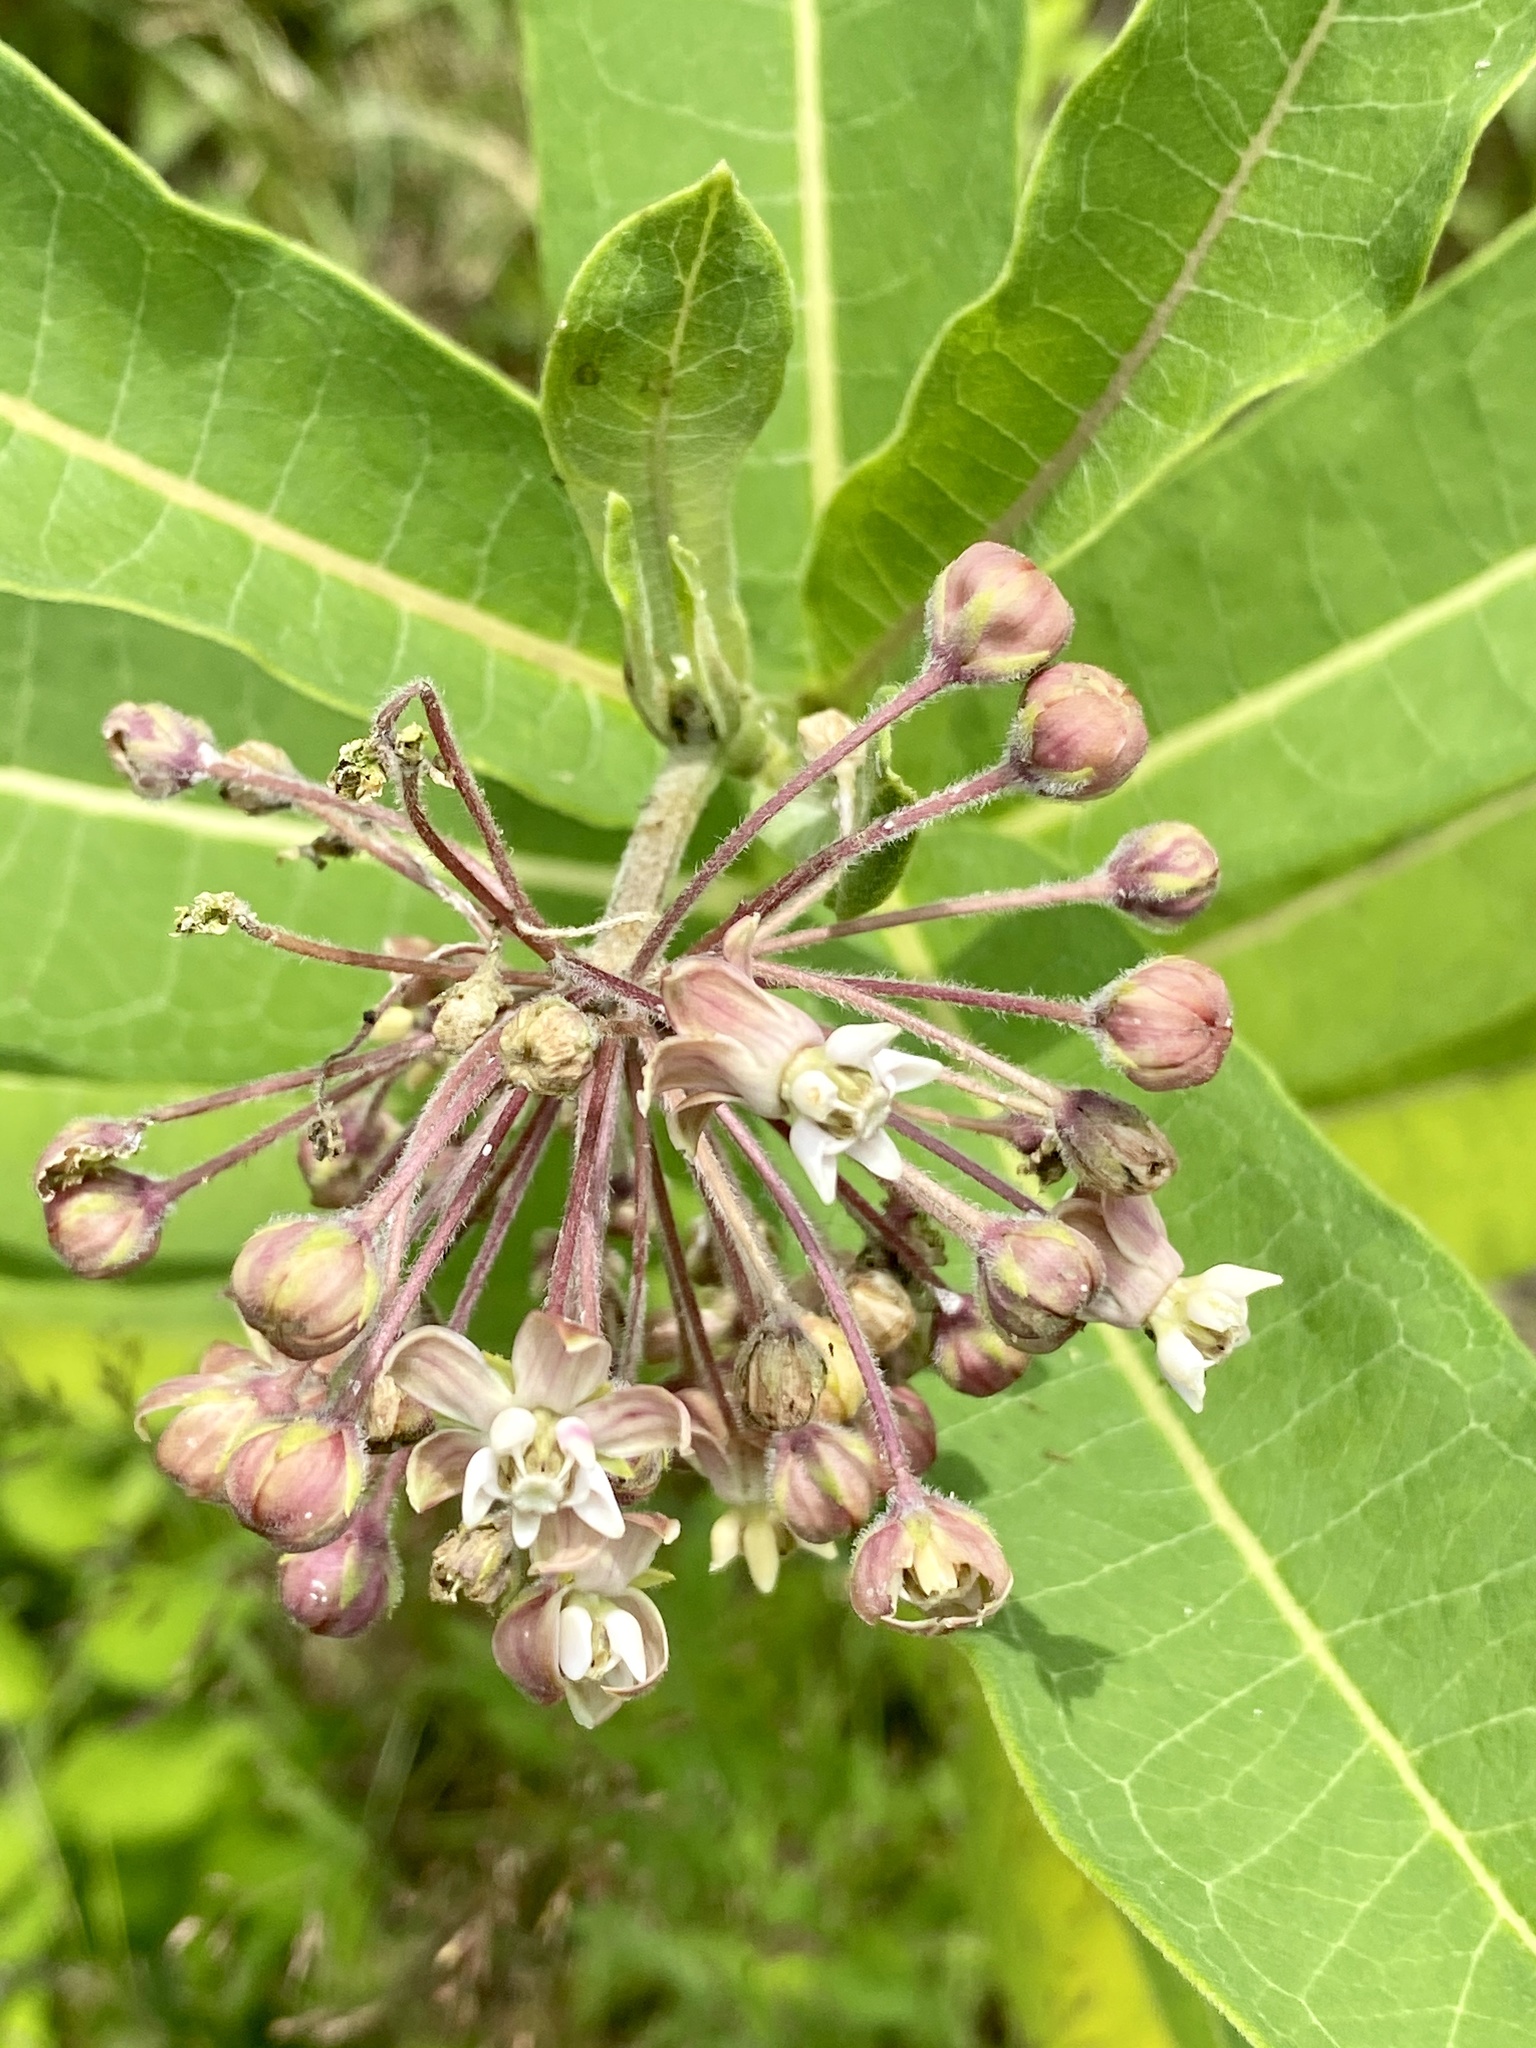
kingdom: Plantae
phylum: Tracheophyta
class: Magnoliopsida
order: Gentianales
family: Apocynaceae
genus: Asclepias
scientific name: Asclepias syriaca
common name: Common milkweed
